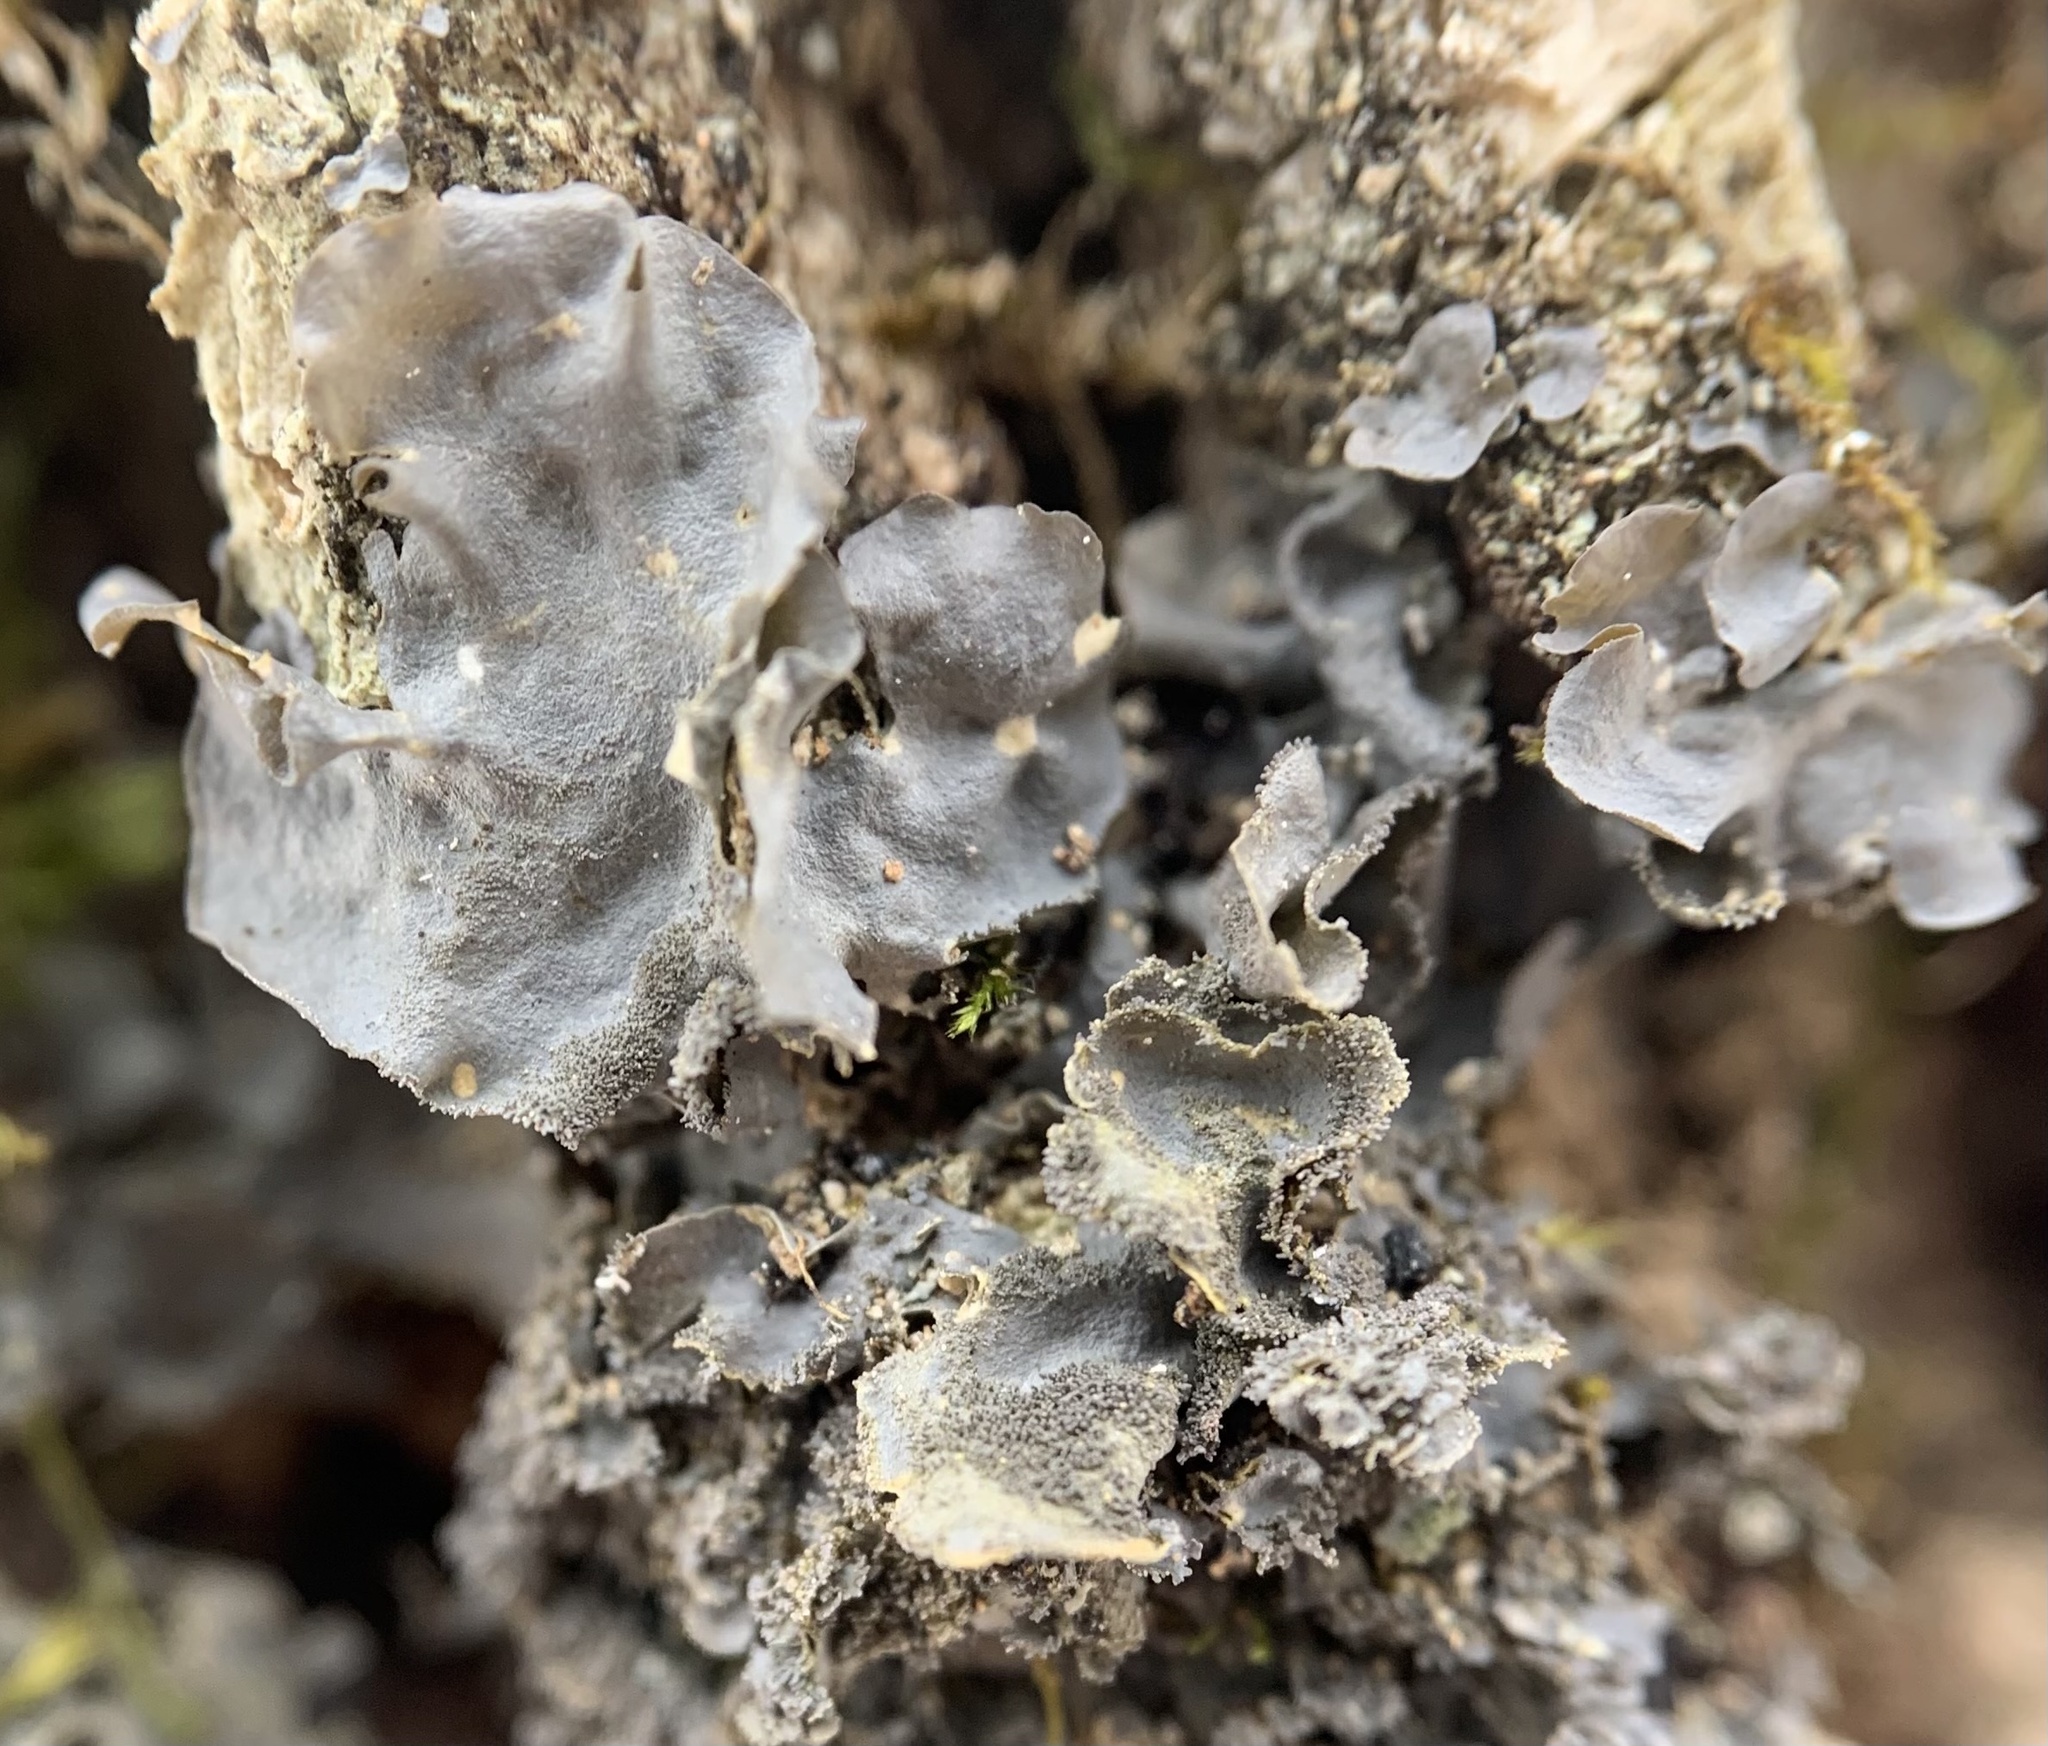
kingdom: Fungi
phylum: Ascomycota
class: Lecanoromycetes
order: Peltigerales
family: Collemataceae
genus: Leptogium
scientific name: Leptogium cyanescens
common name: Blue jellyskin
